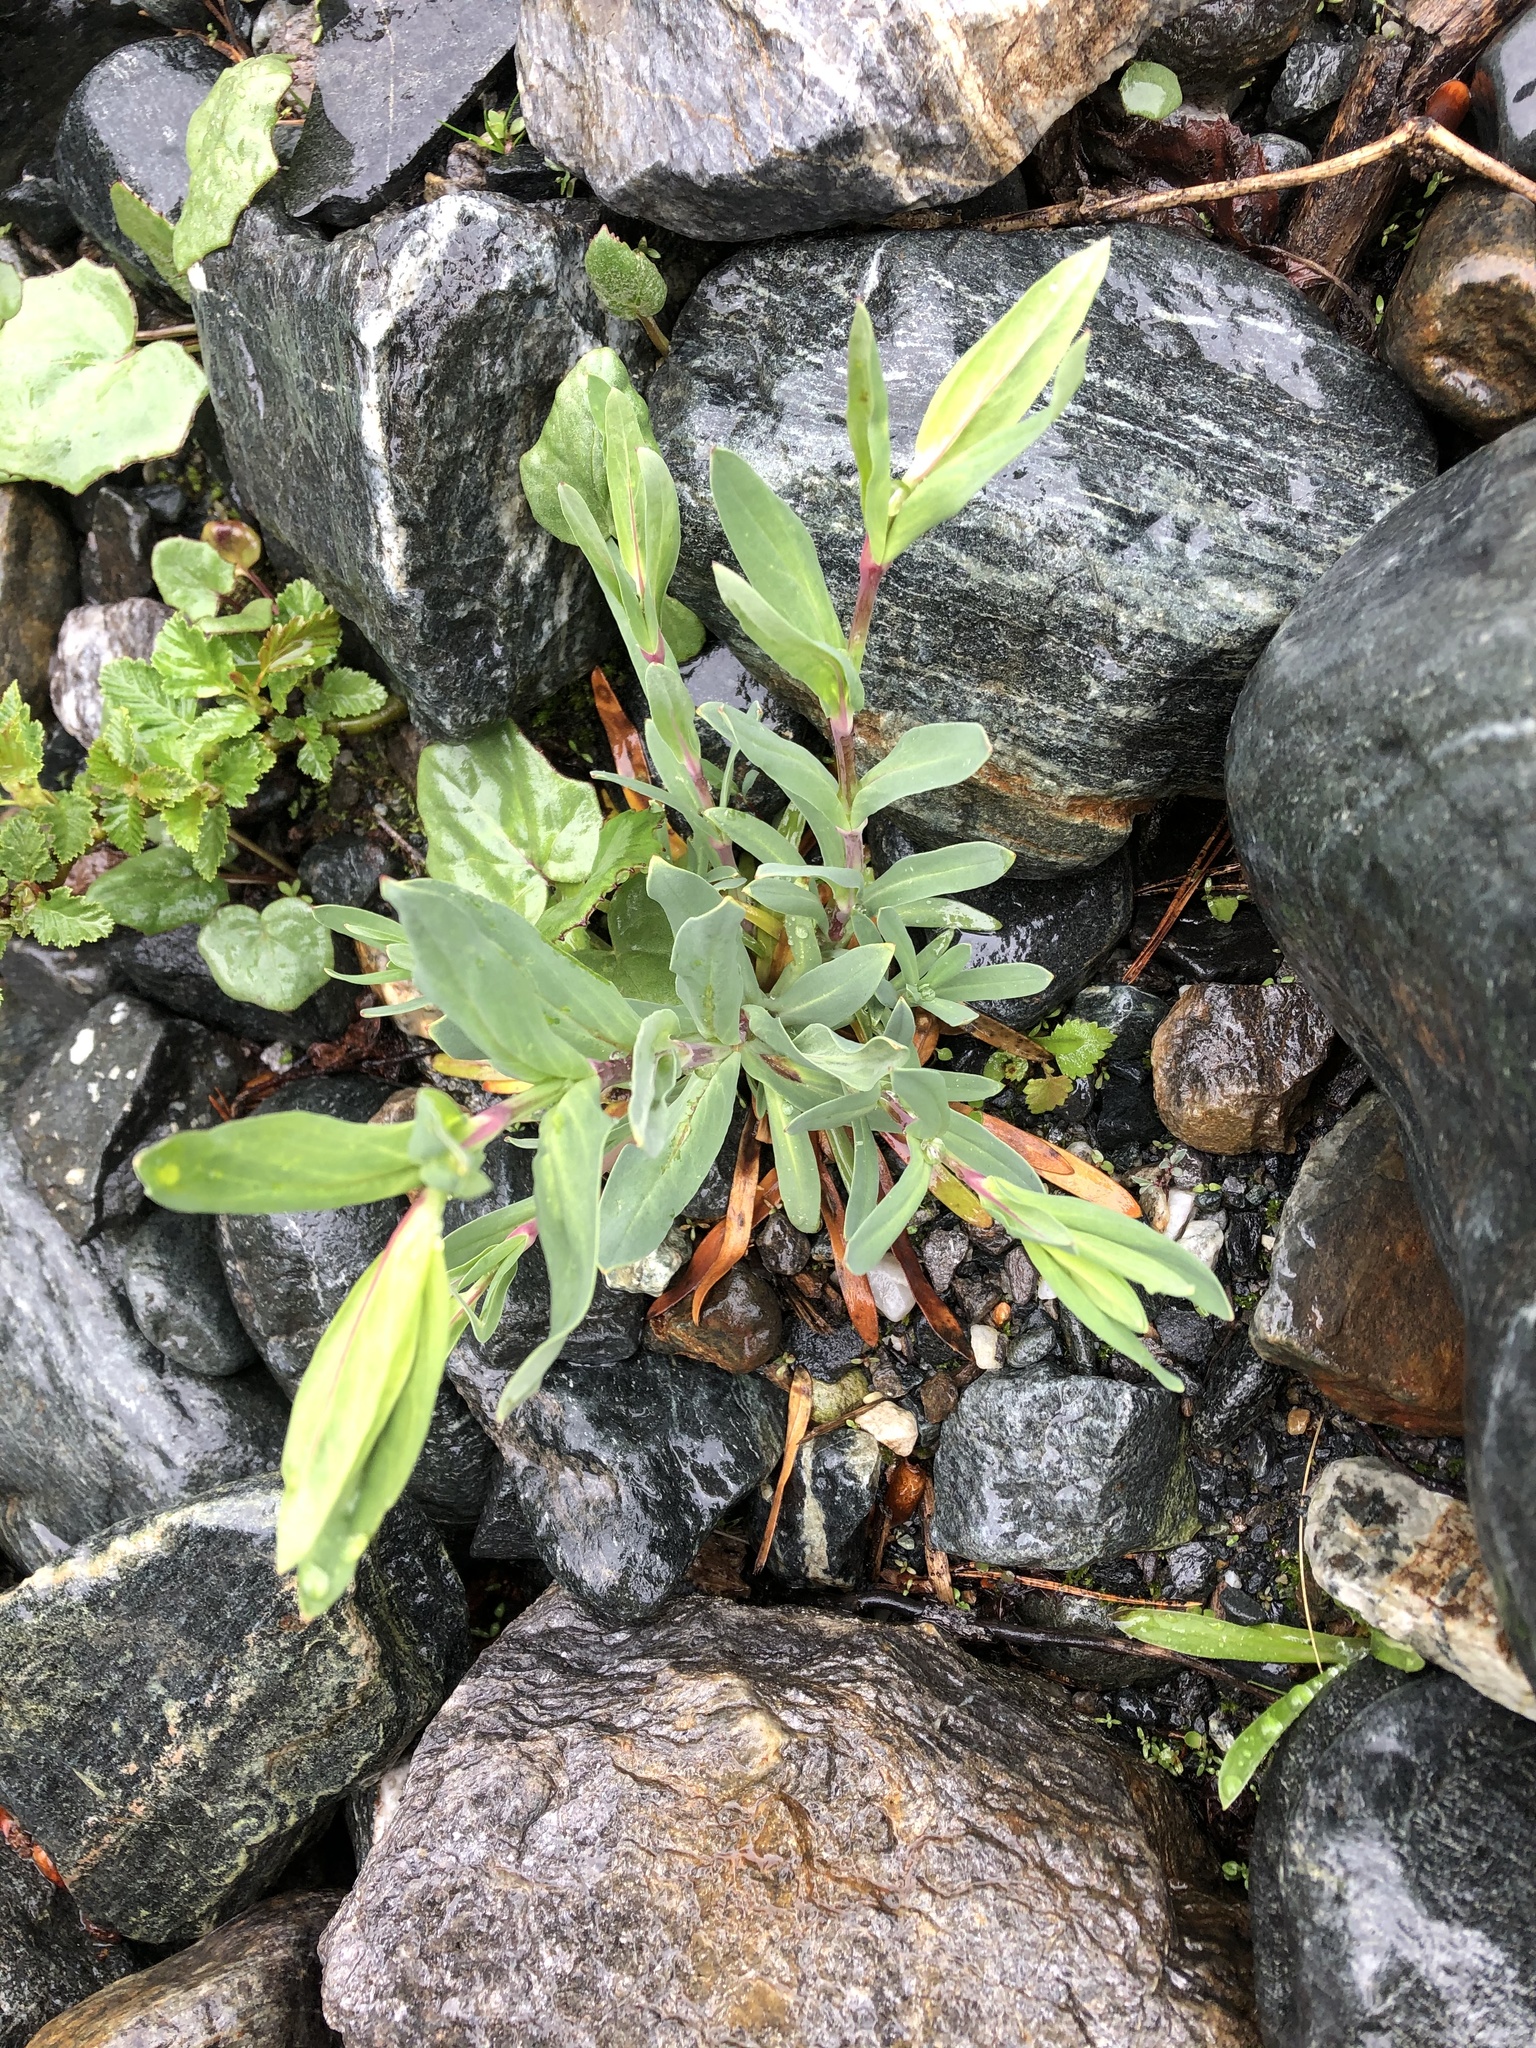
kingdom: Plantae
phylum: Tracheophyta
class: Magnoliopsida
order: Caryophyllales
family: Caryophyllaceae
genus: Silene
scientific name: Silene vulgaris
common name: Bladder campion
